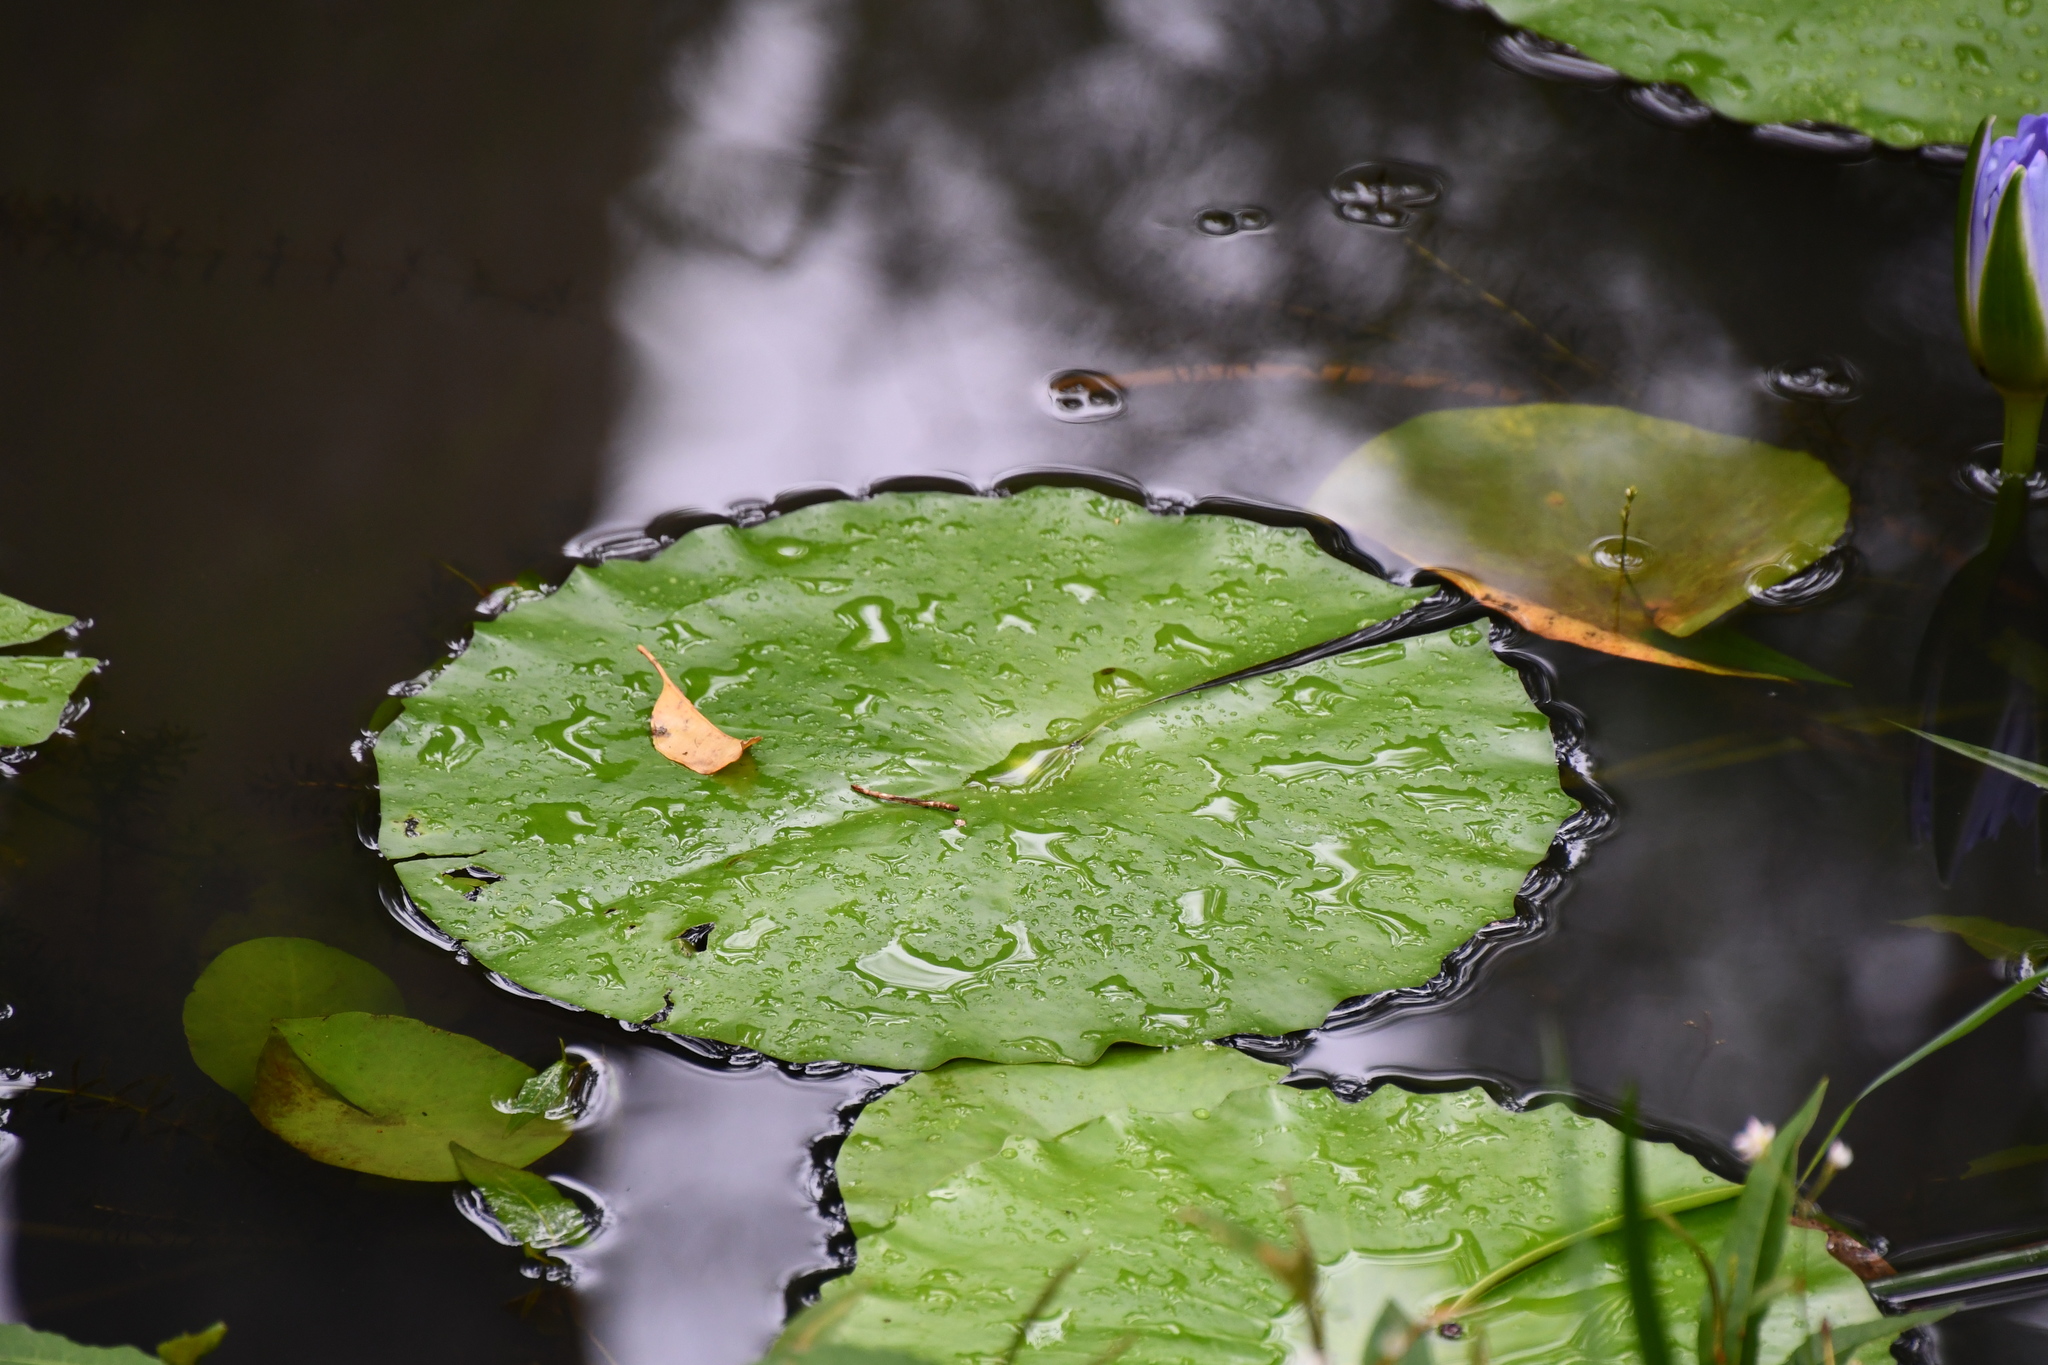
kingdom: Plantae
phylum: Tracheophyta
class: Magnoliopsida
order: Nymphaeales
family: Nymphaeaceae
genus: Nymphaea
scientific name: Nymphaea nouchali
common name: Blue lotus
